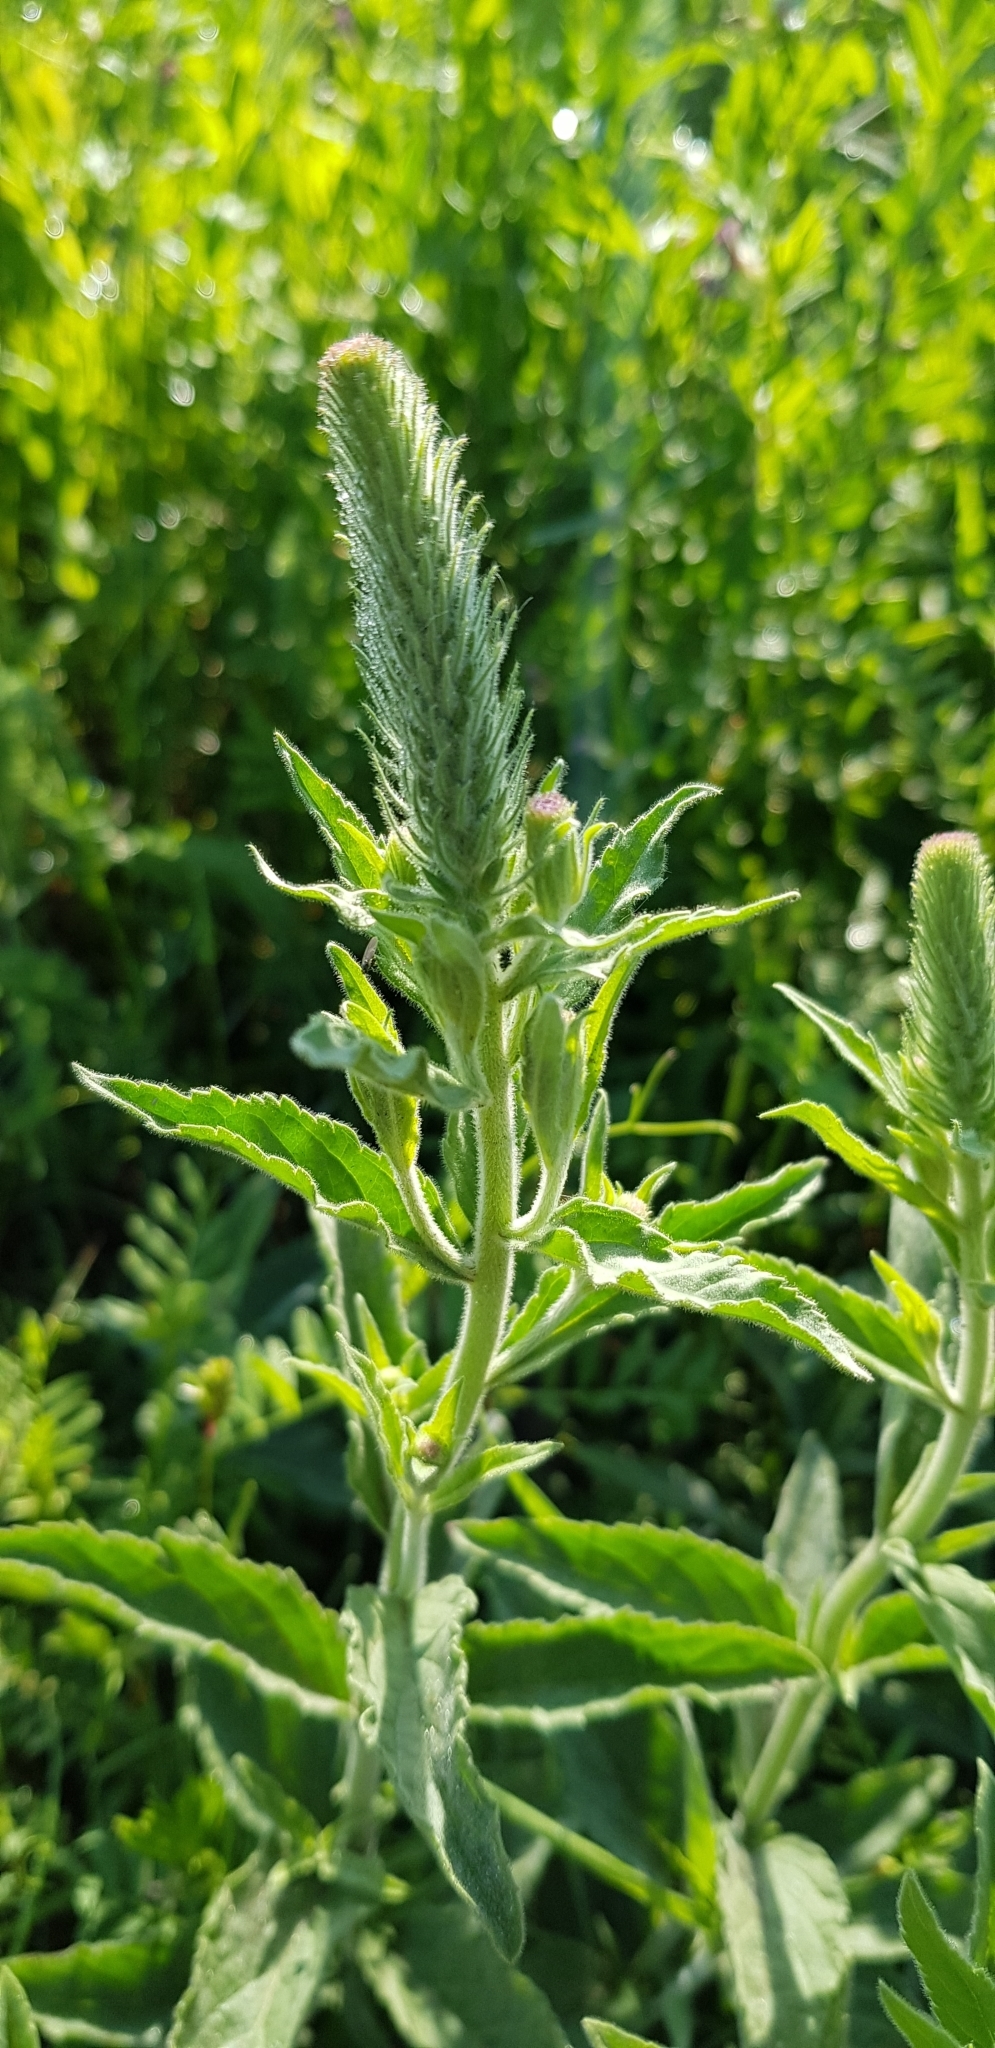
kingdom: Plantae
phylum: Tracheophyta
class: Magnoliopsida
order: Lamiales
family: Plantaginaceae
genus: Veronica
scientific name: Veronica barrelieri
